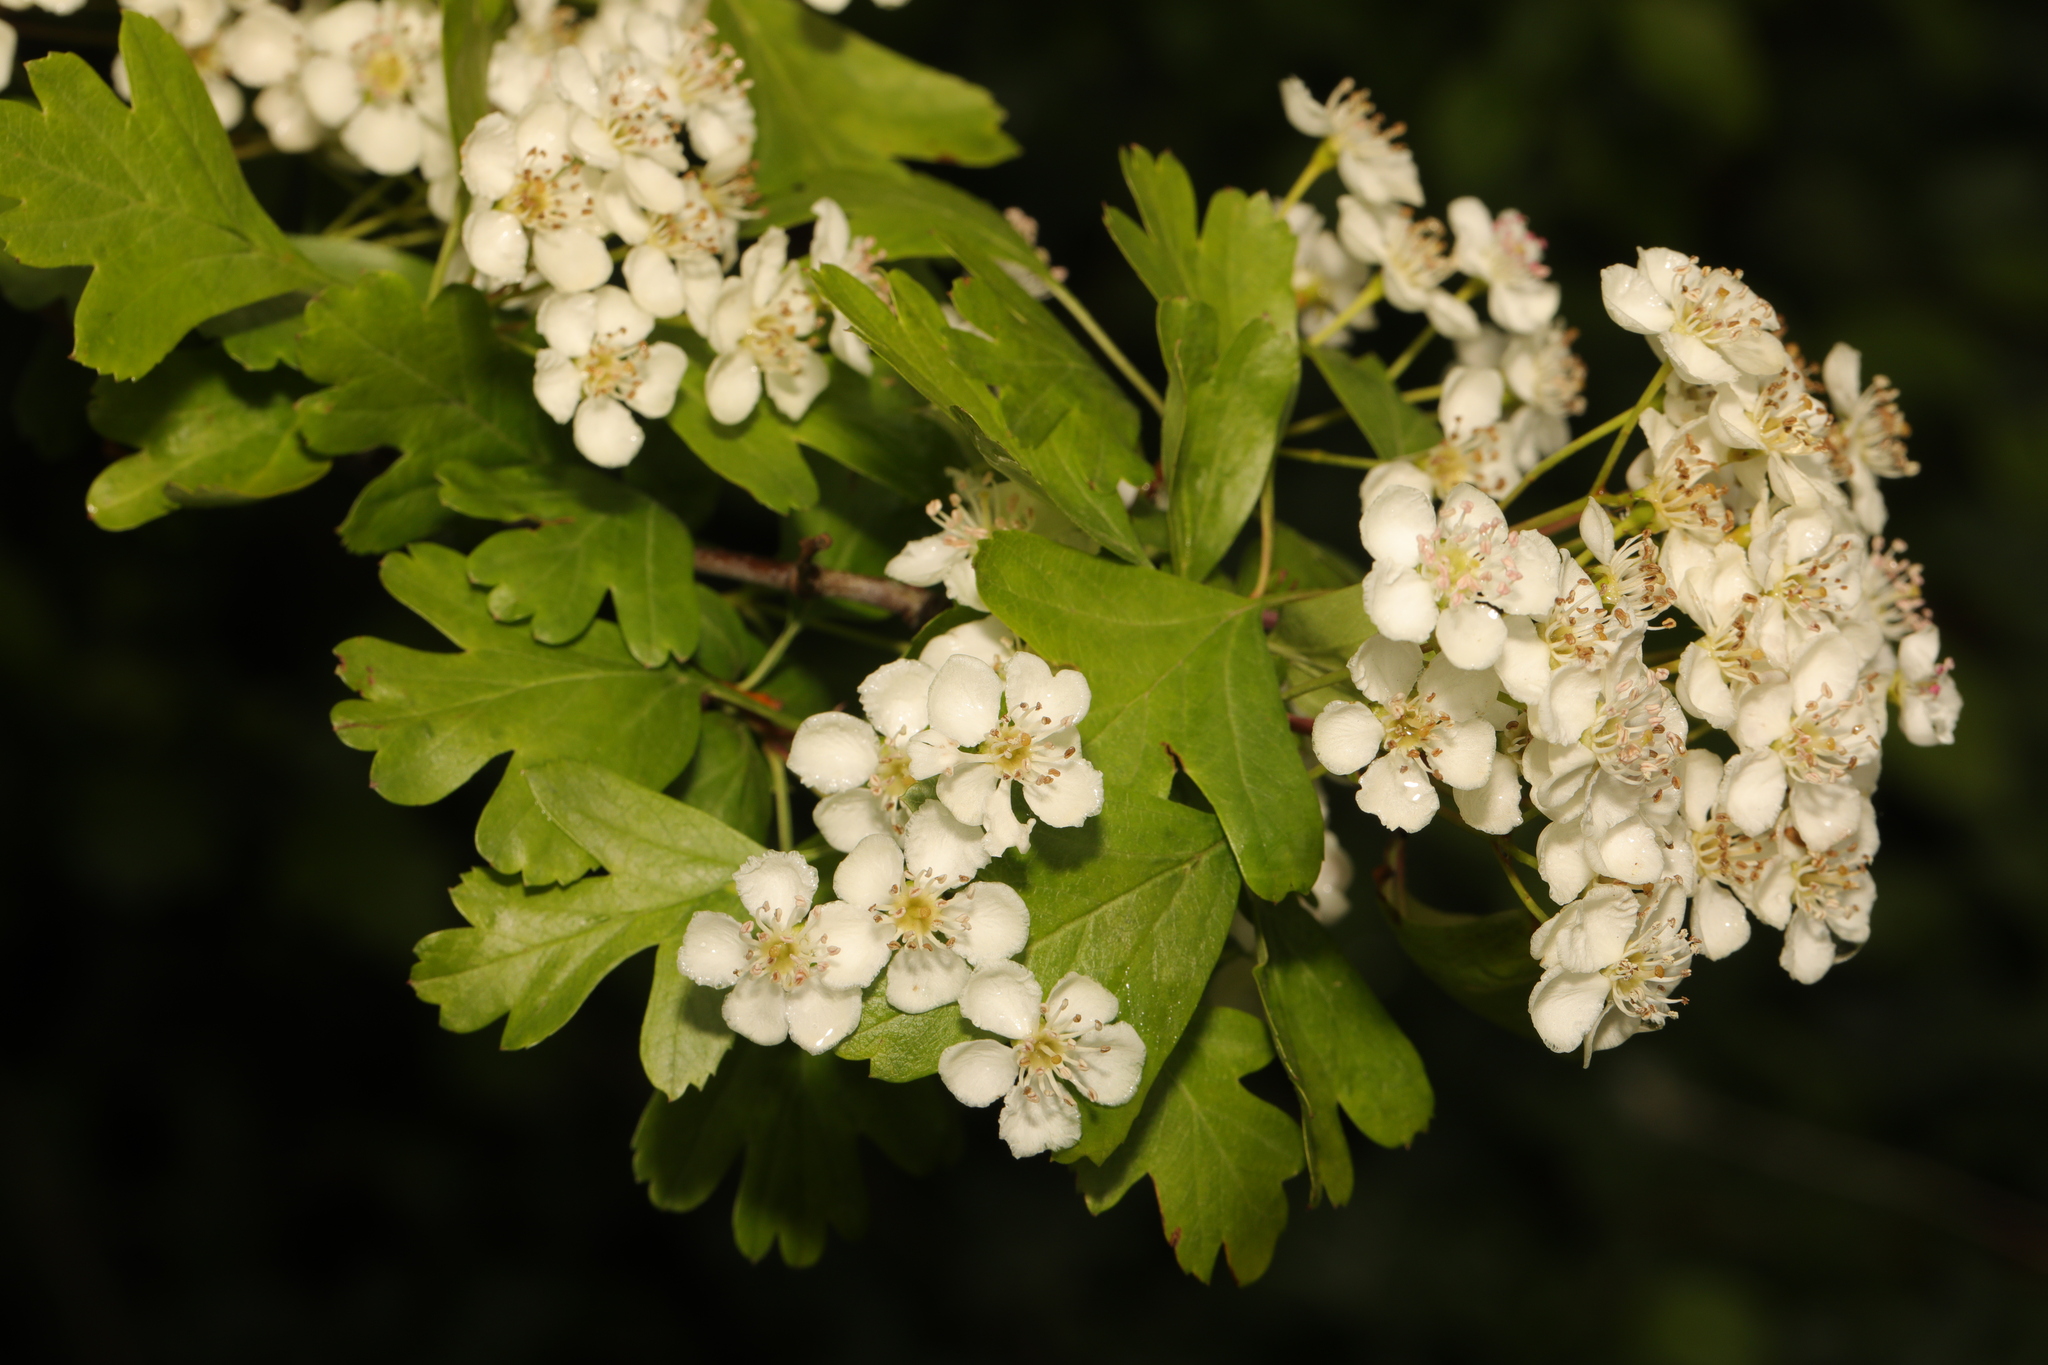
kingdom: Plantae
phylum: Tracheophyta
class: Magnoliopsida
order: Rosales
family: Rosaceae
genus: Crataegus
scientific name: Crataegus monogyna
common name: Hawthorn
